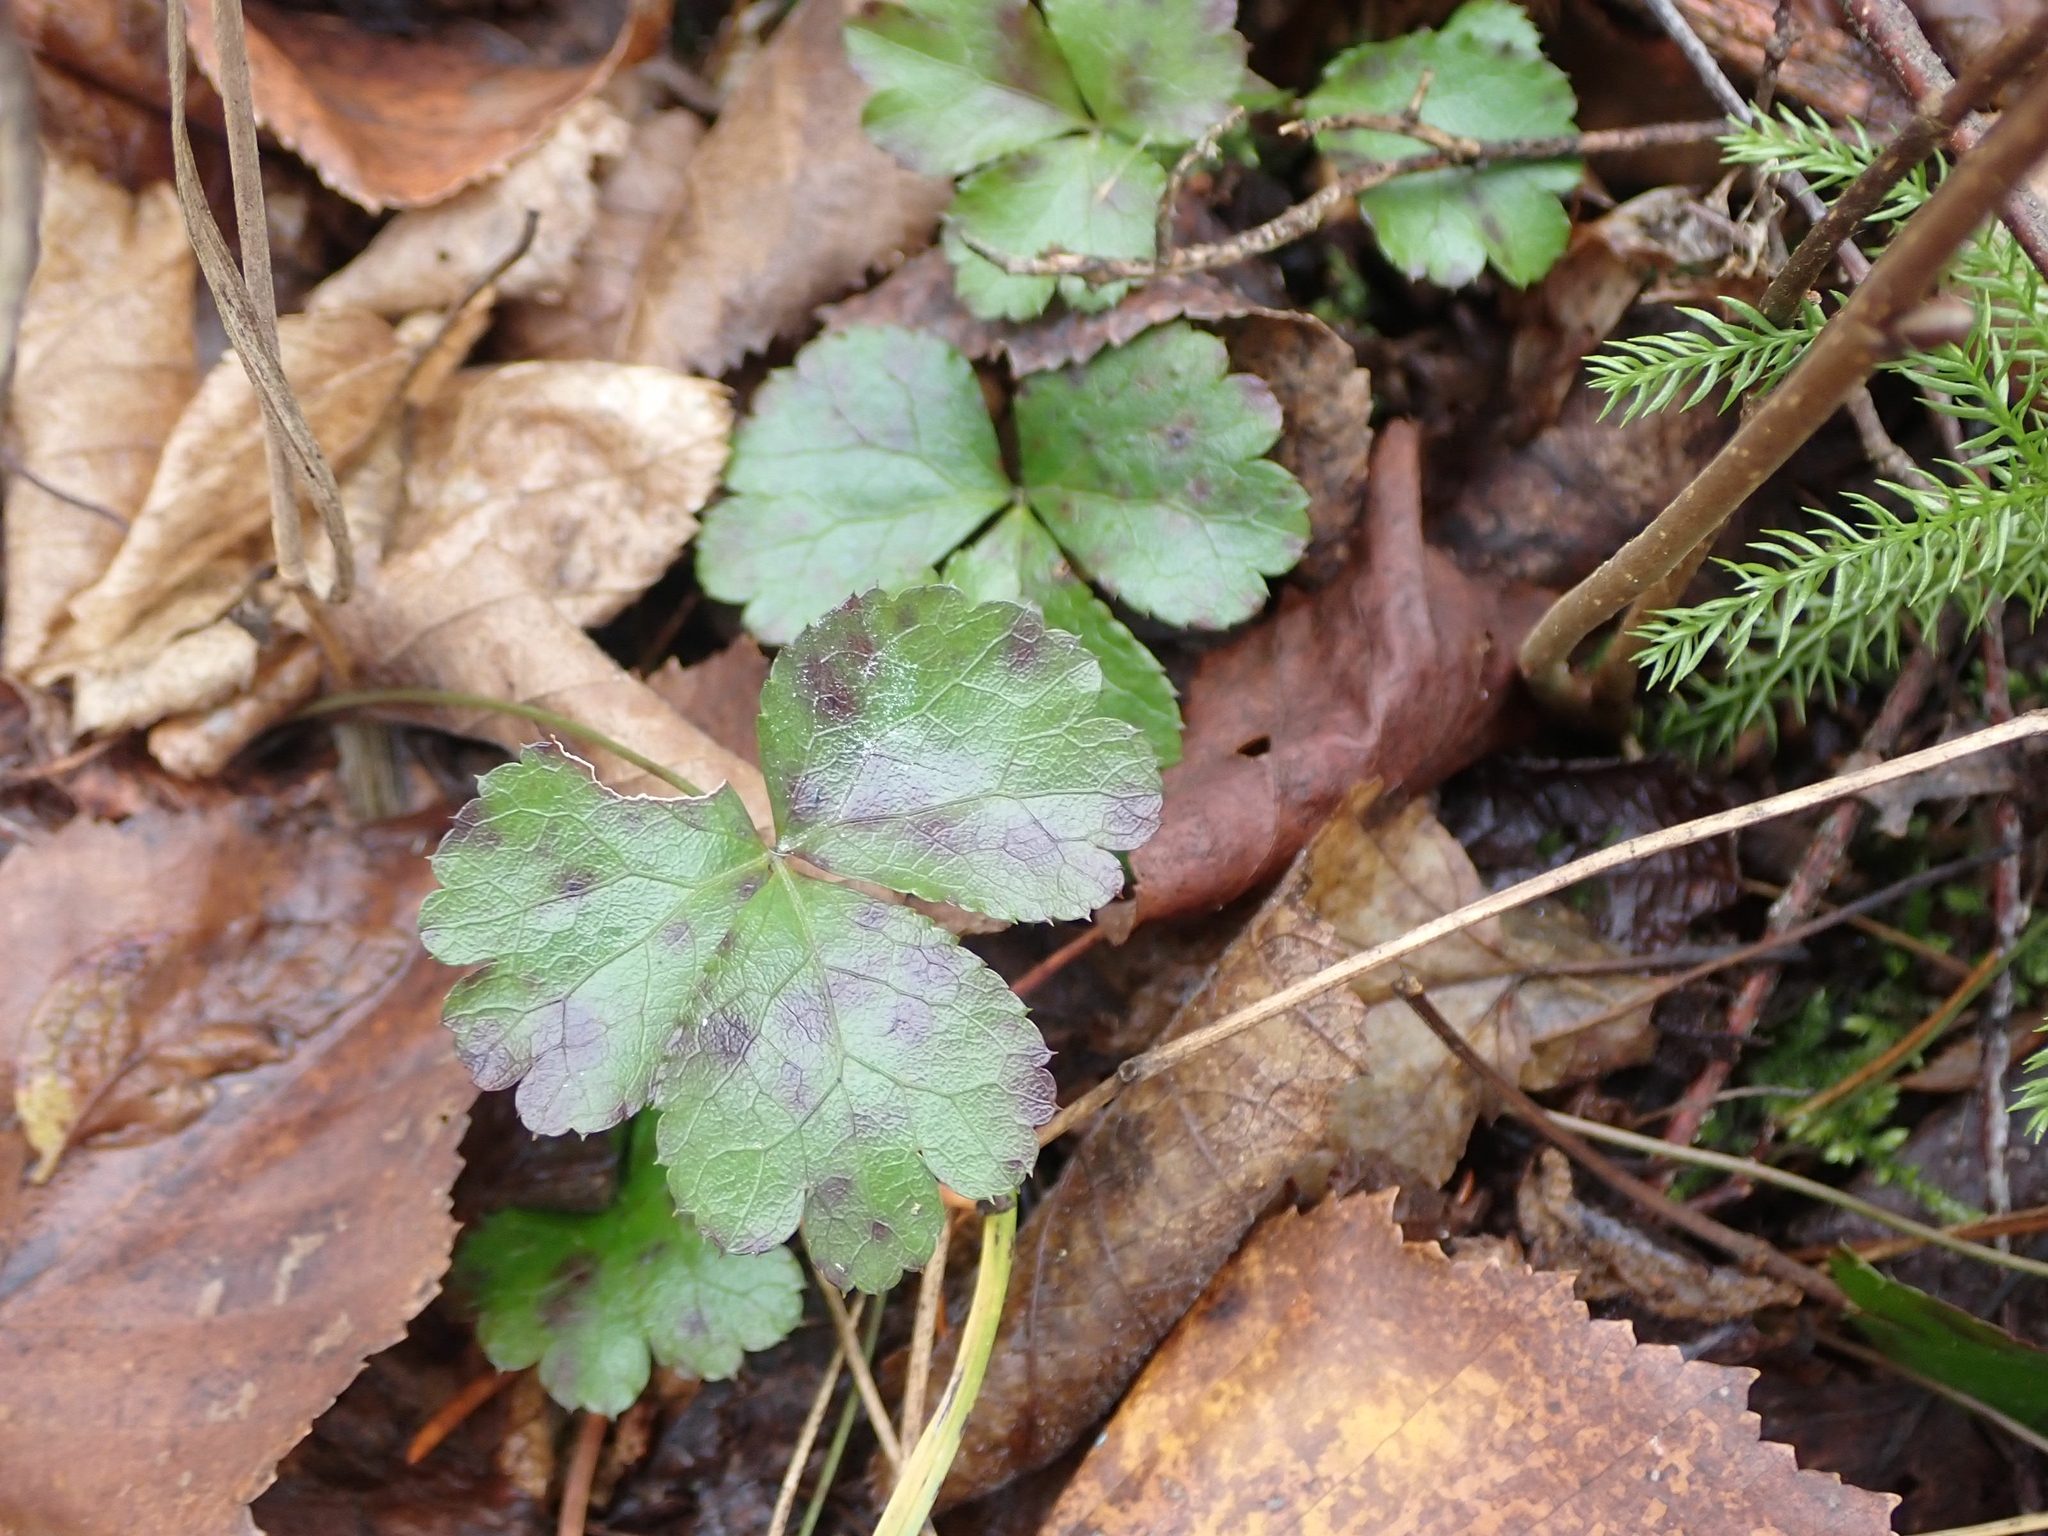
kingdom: Plantae
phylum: Tracheophyta
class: Magnoliopsida
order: Ranunculales
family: Ranunculaceae
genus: Coptis
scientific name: Coptis trifolia
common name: Canker-root
